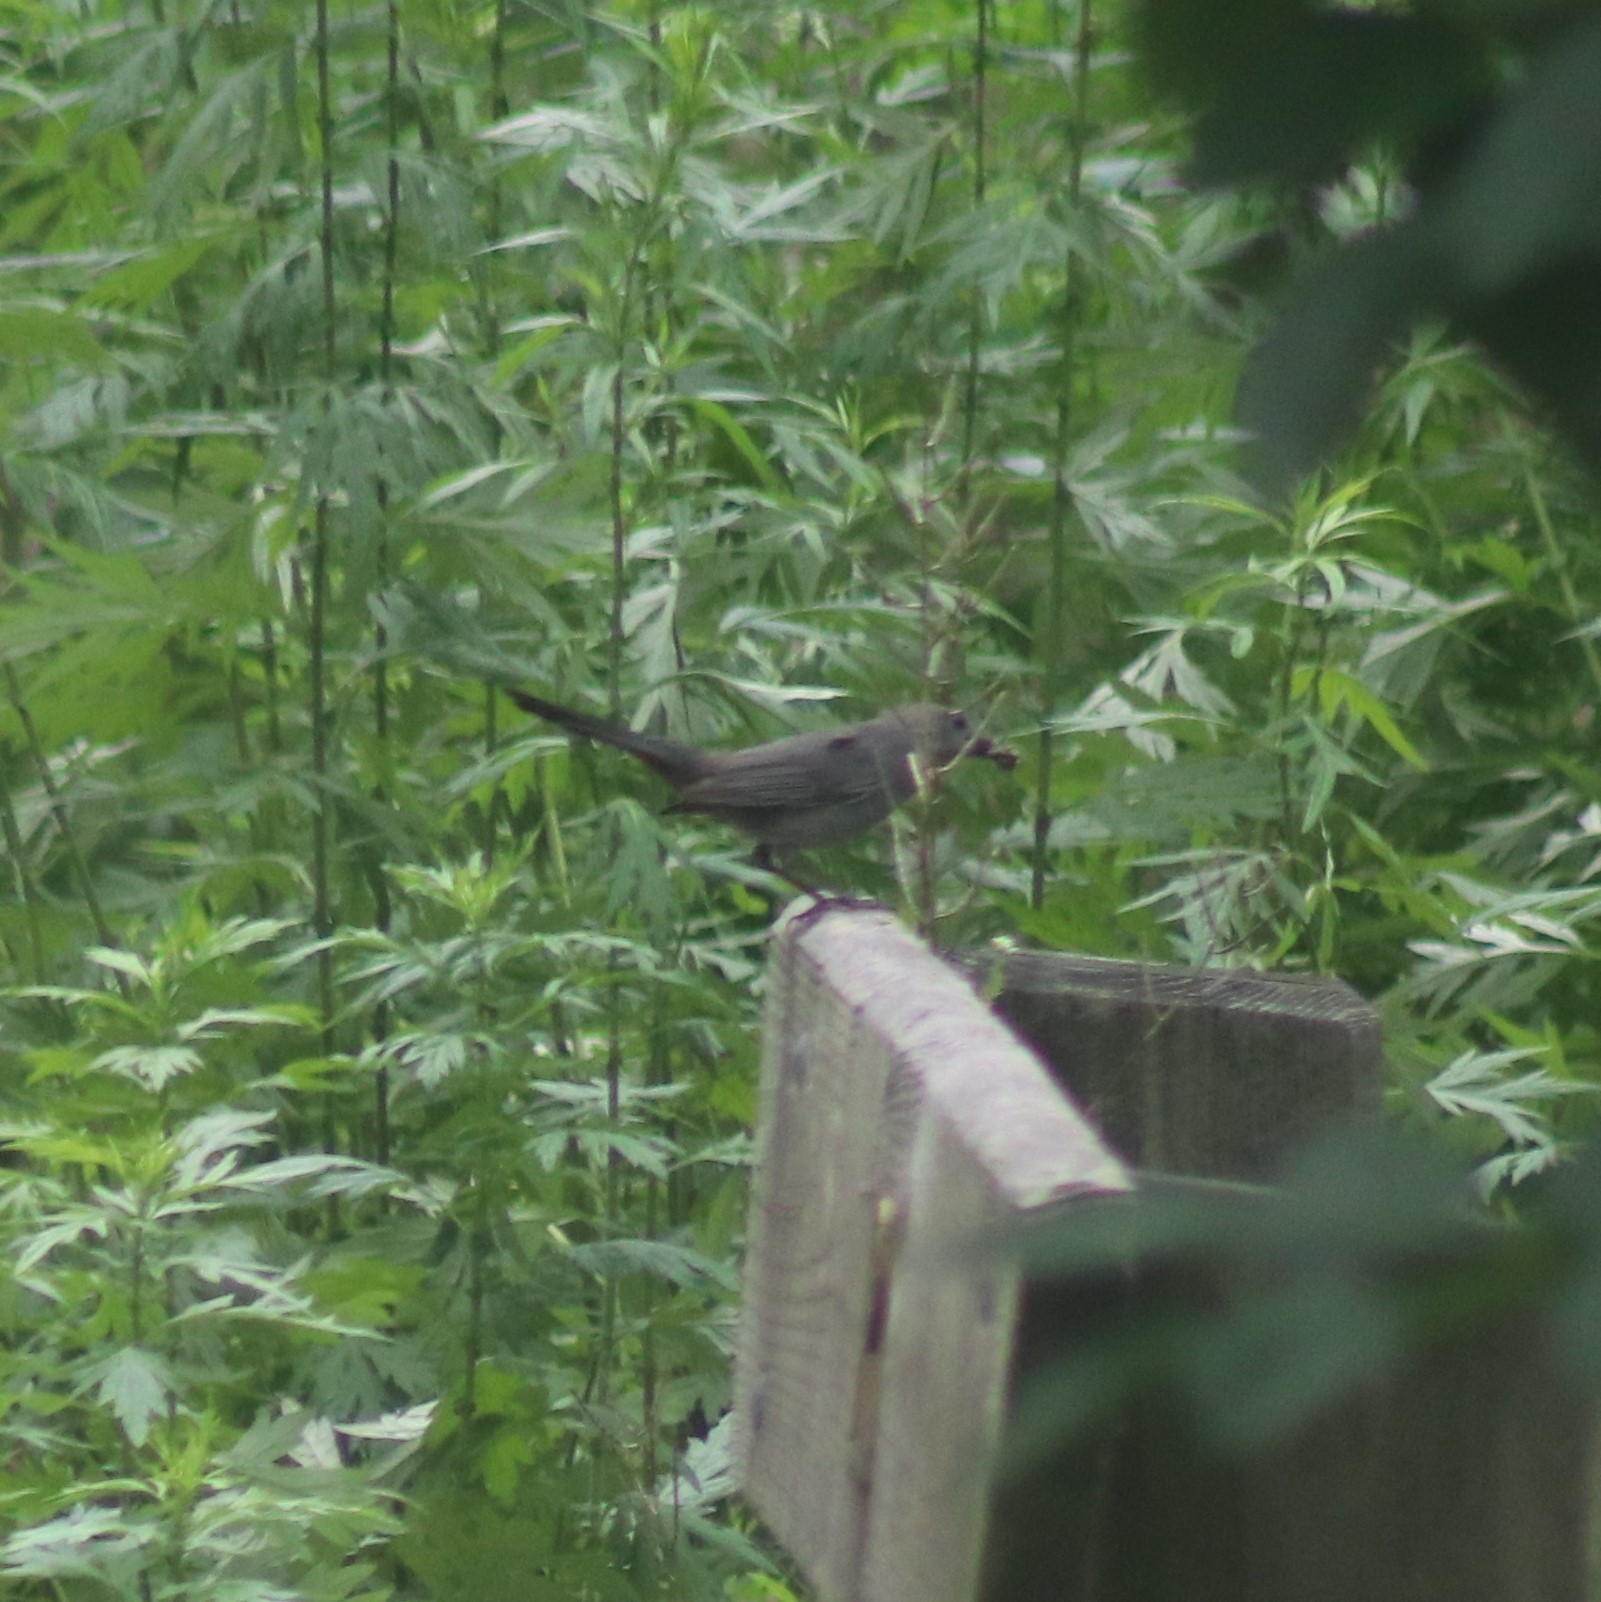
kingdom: Animalia
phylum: Chordata
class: Aves
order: Passeriformes
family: Mimidae
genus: Dumetella
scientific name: Dumetella carolinensis
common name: Gray catbird
